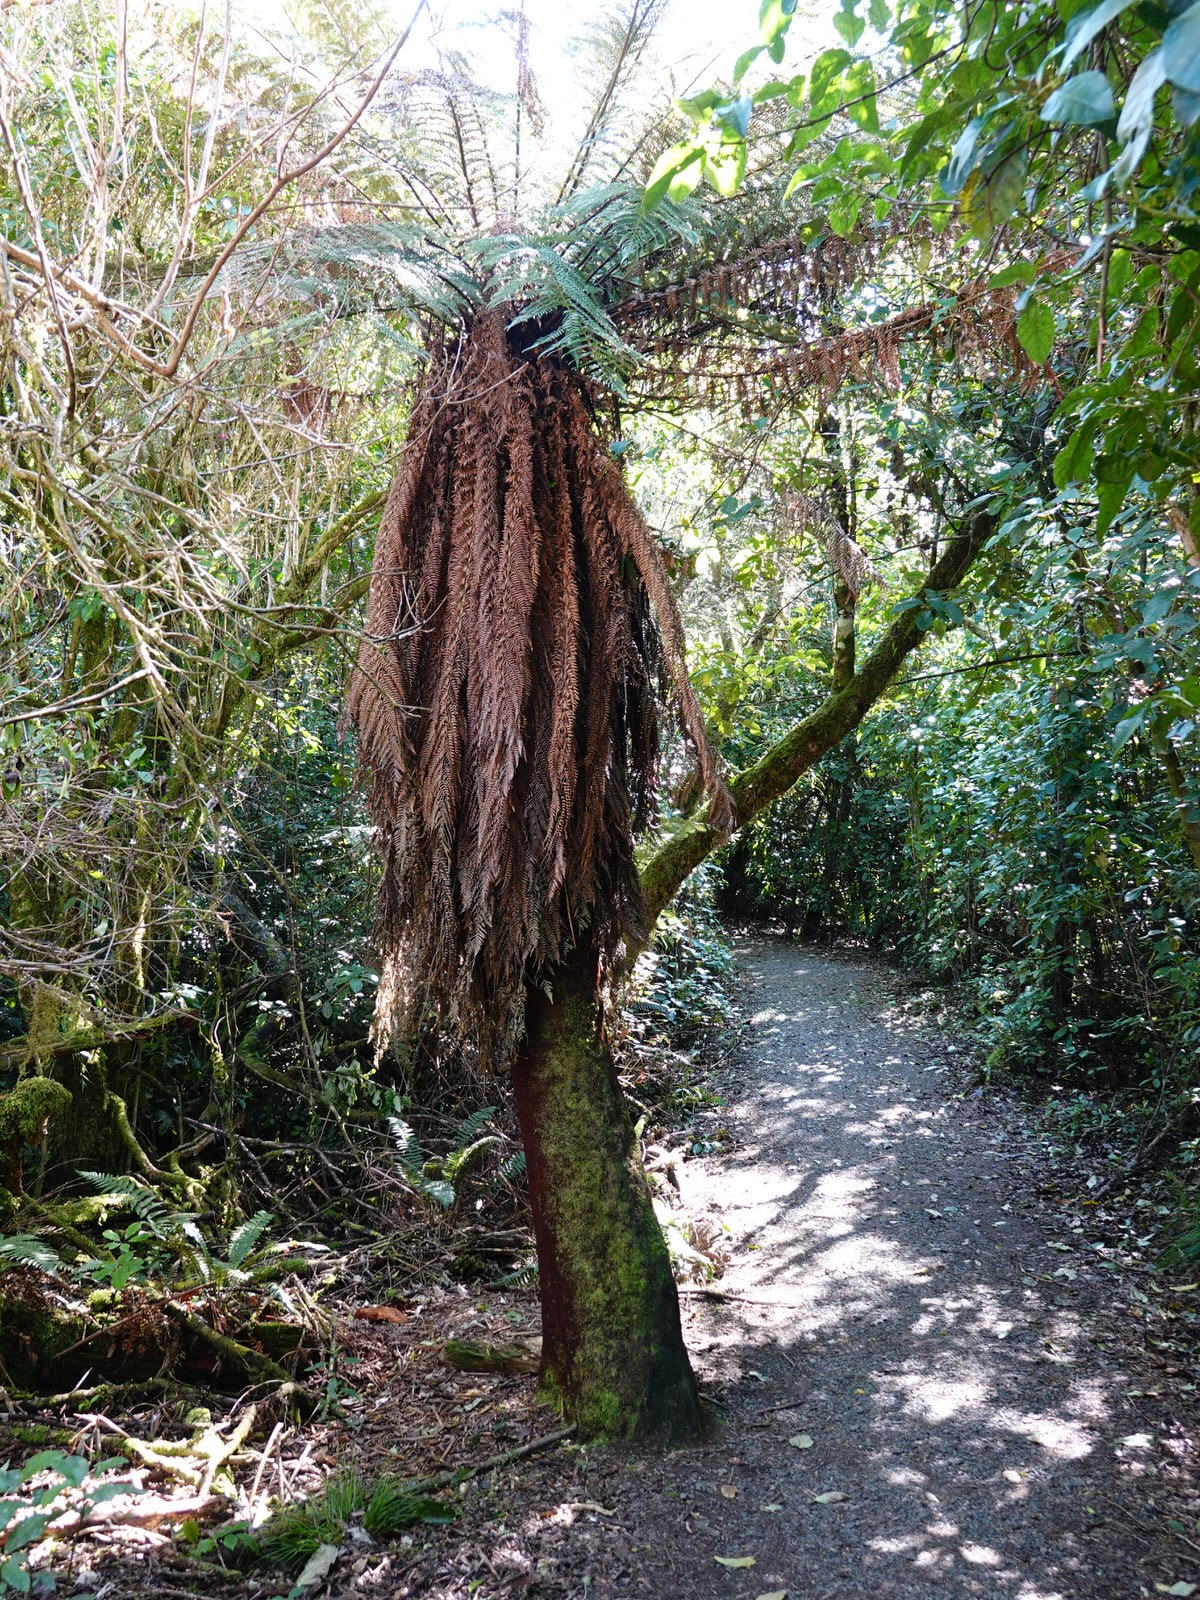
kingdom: Plantae
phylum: Tracheophyta
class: Polypodiopsida
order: Cyatheales
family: Dicksoniaceae
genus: Dicksonia
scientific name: Dicksonia fibrosa
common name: Golden tree fern
